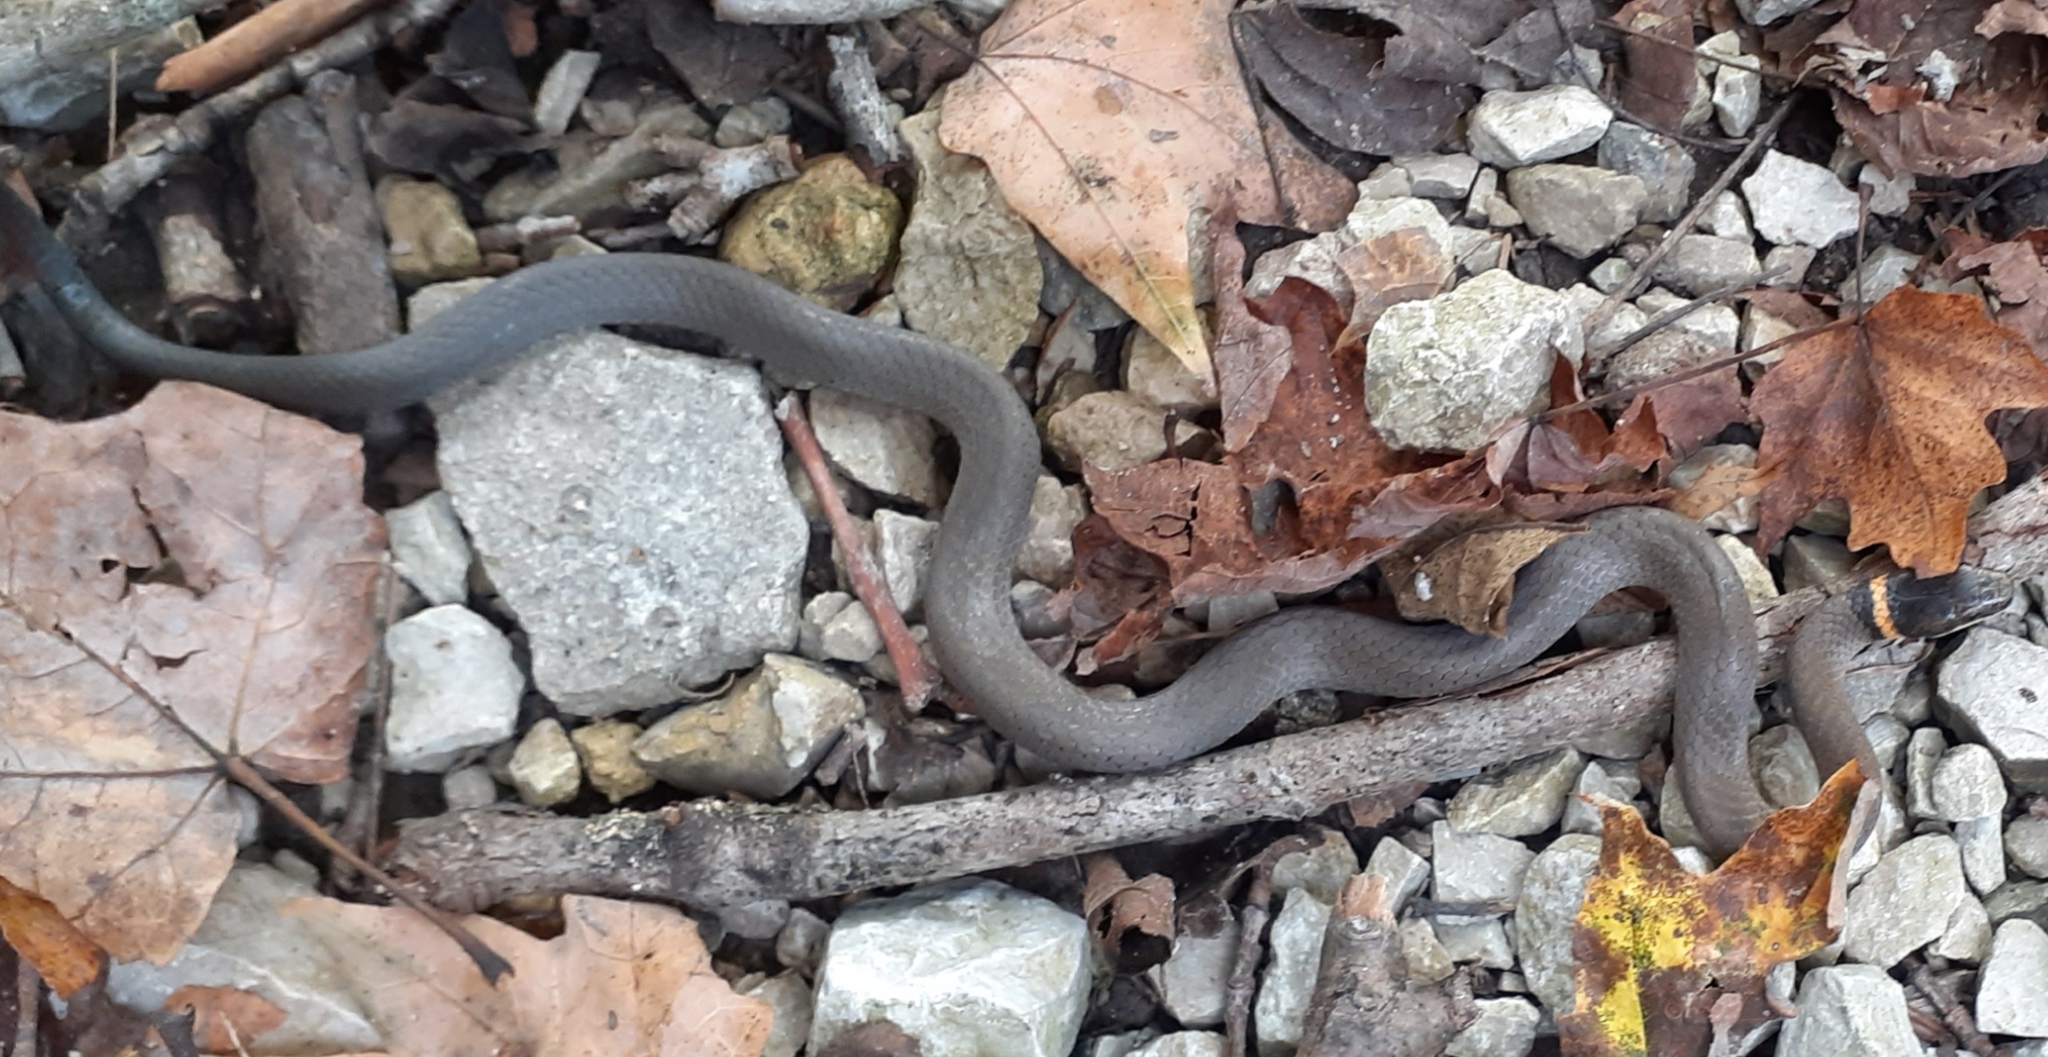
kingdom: Animalia
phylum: Chordata
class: Squamata
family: Colubridae
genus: Diadophis
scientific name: Diadophis punctatus
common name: Ringneck snake
